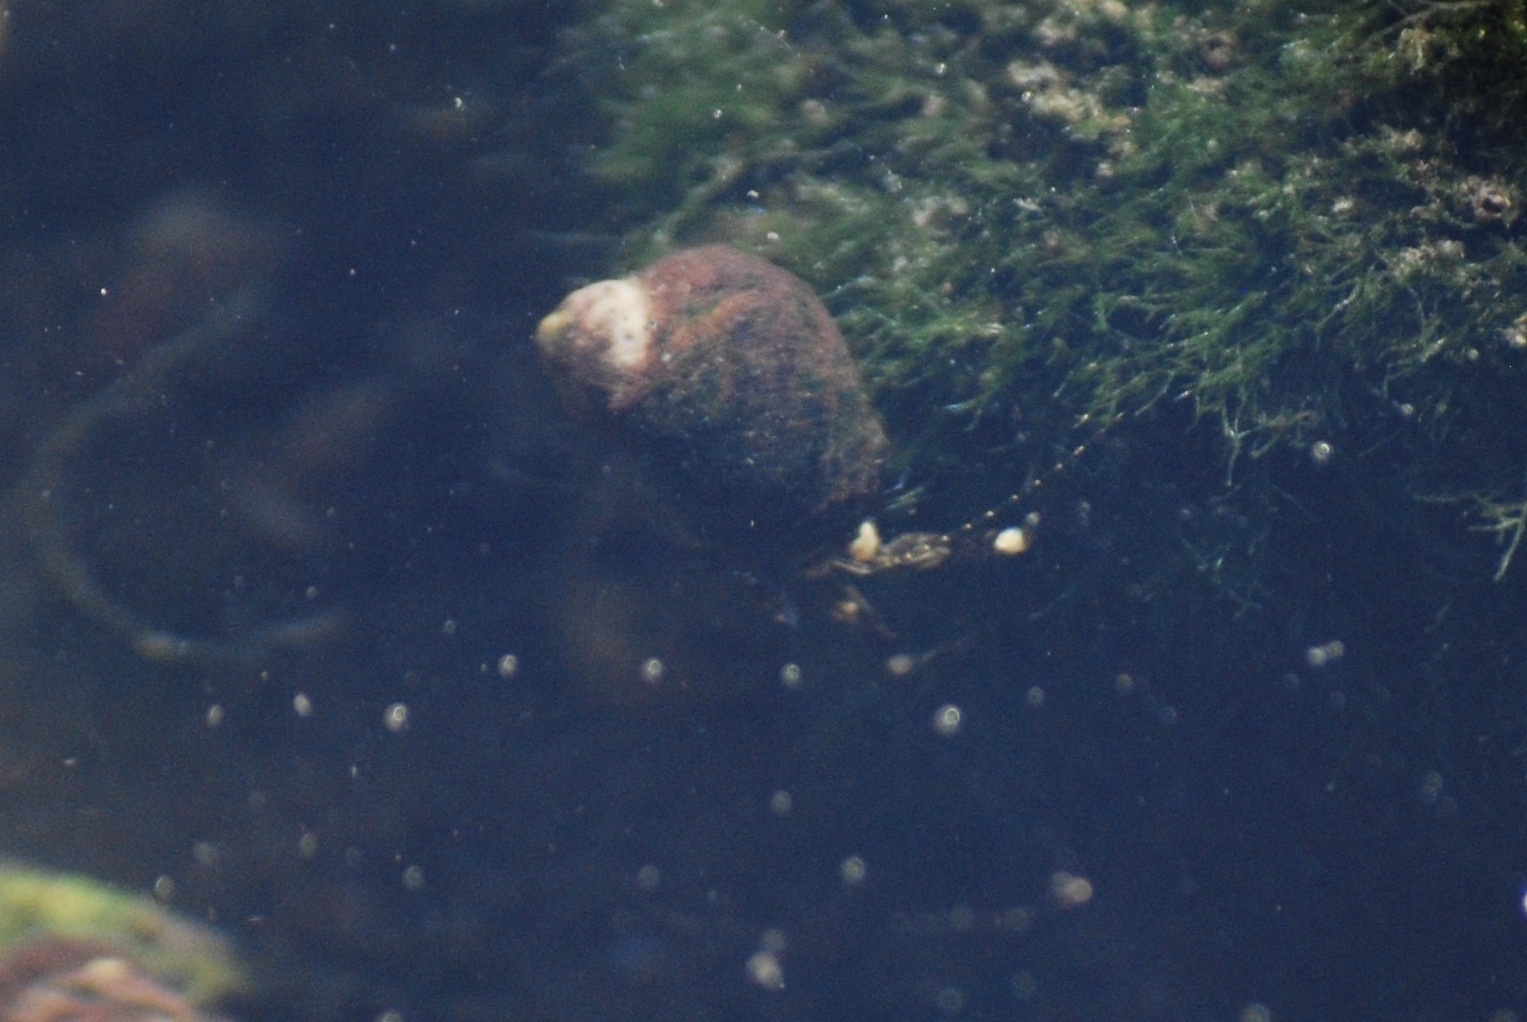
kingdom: Animalia
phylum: Arthropoda
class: Malacostraca
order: Decapoda
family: Paguridae
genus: Pagurus
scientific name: Pagurus hirsutiusculus
